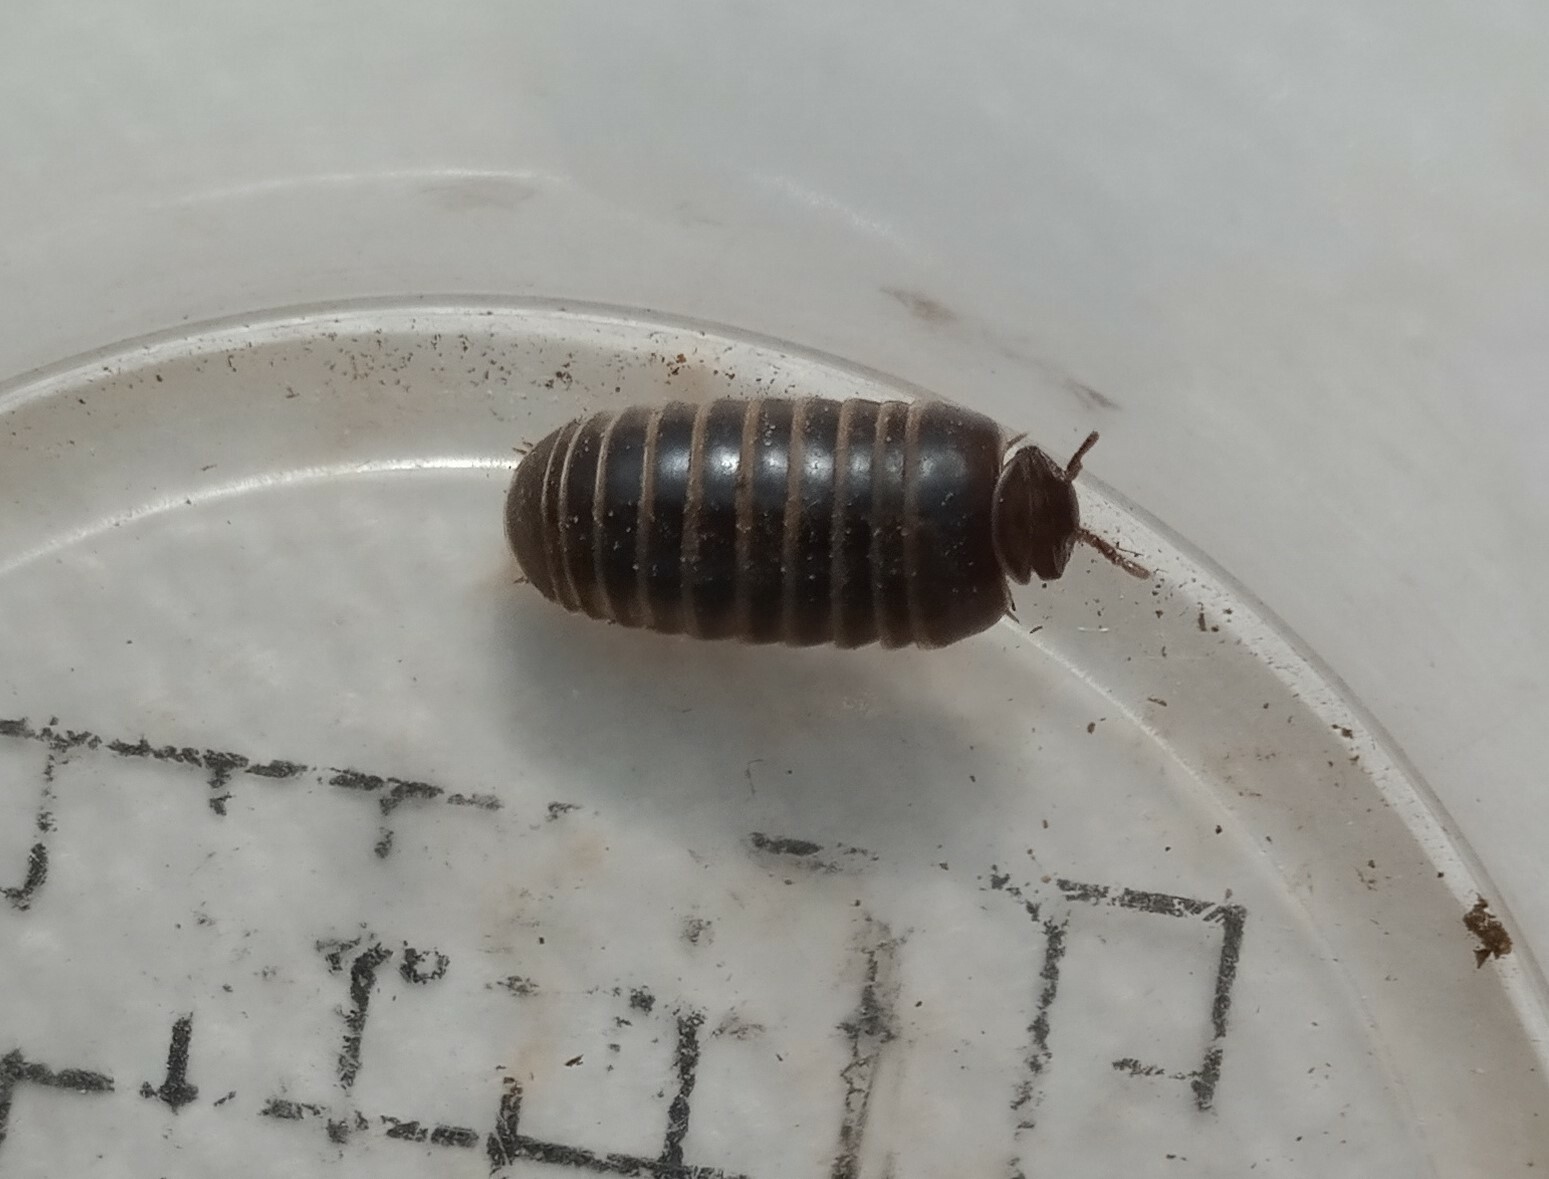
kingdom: Animalia
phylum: Arthropoda
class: Diplopoda
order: Glomerida
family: Glomeridae
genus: Glomeris
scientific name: Glomeris marginata
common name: Bordered pill millipede
